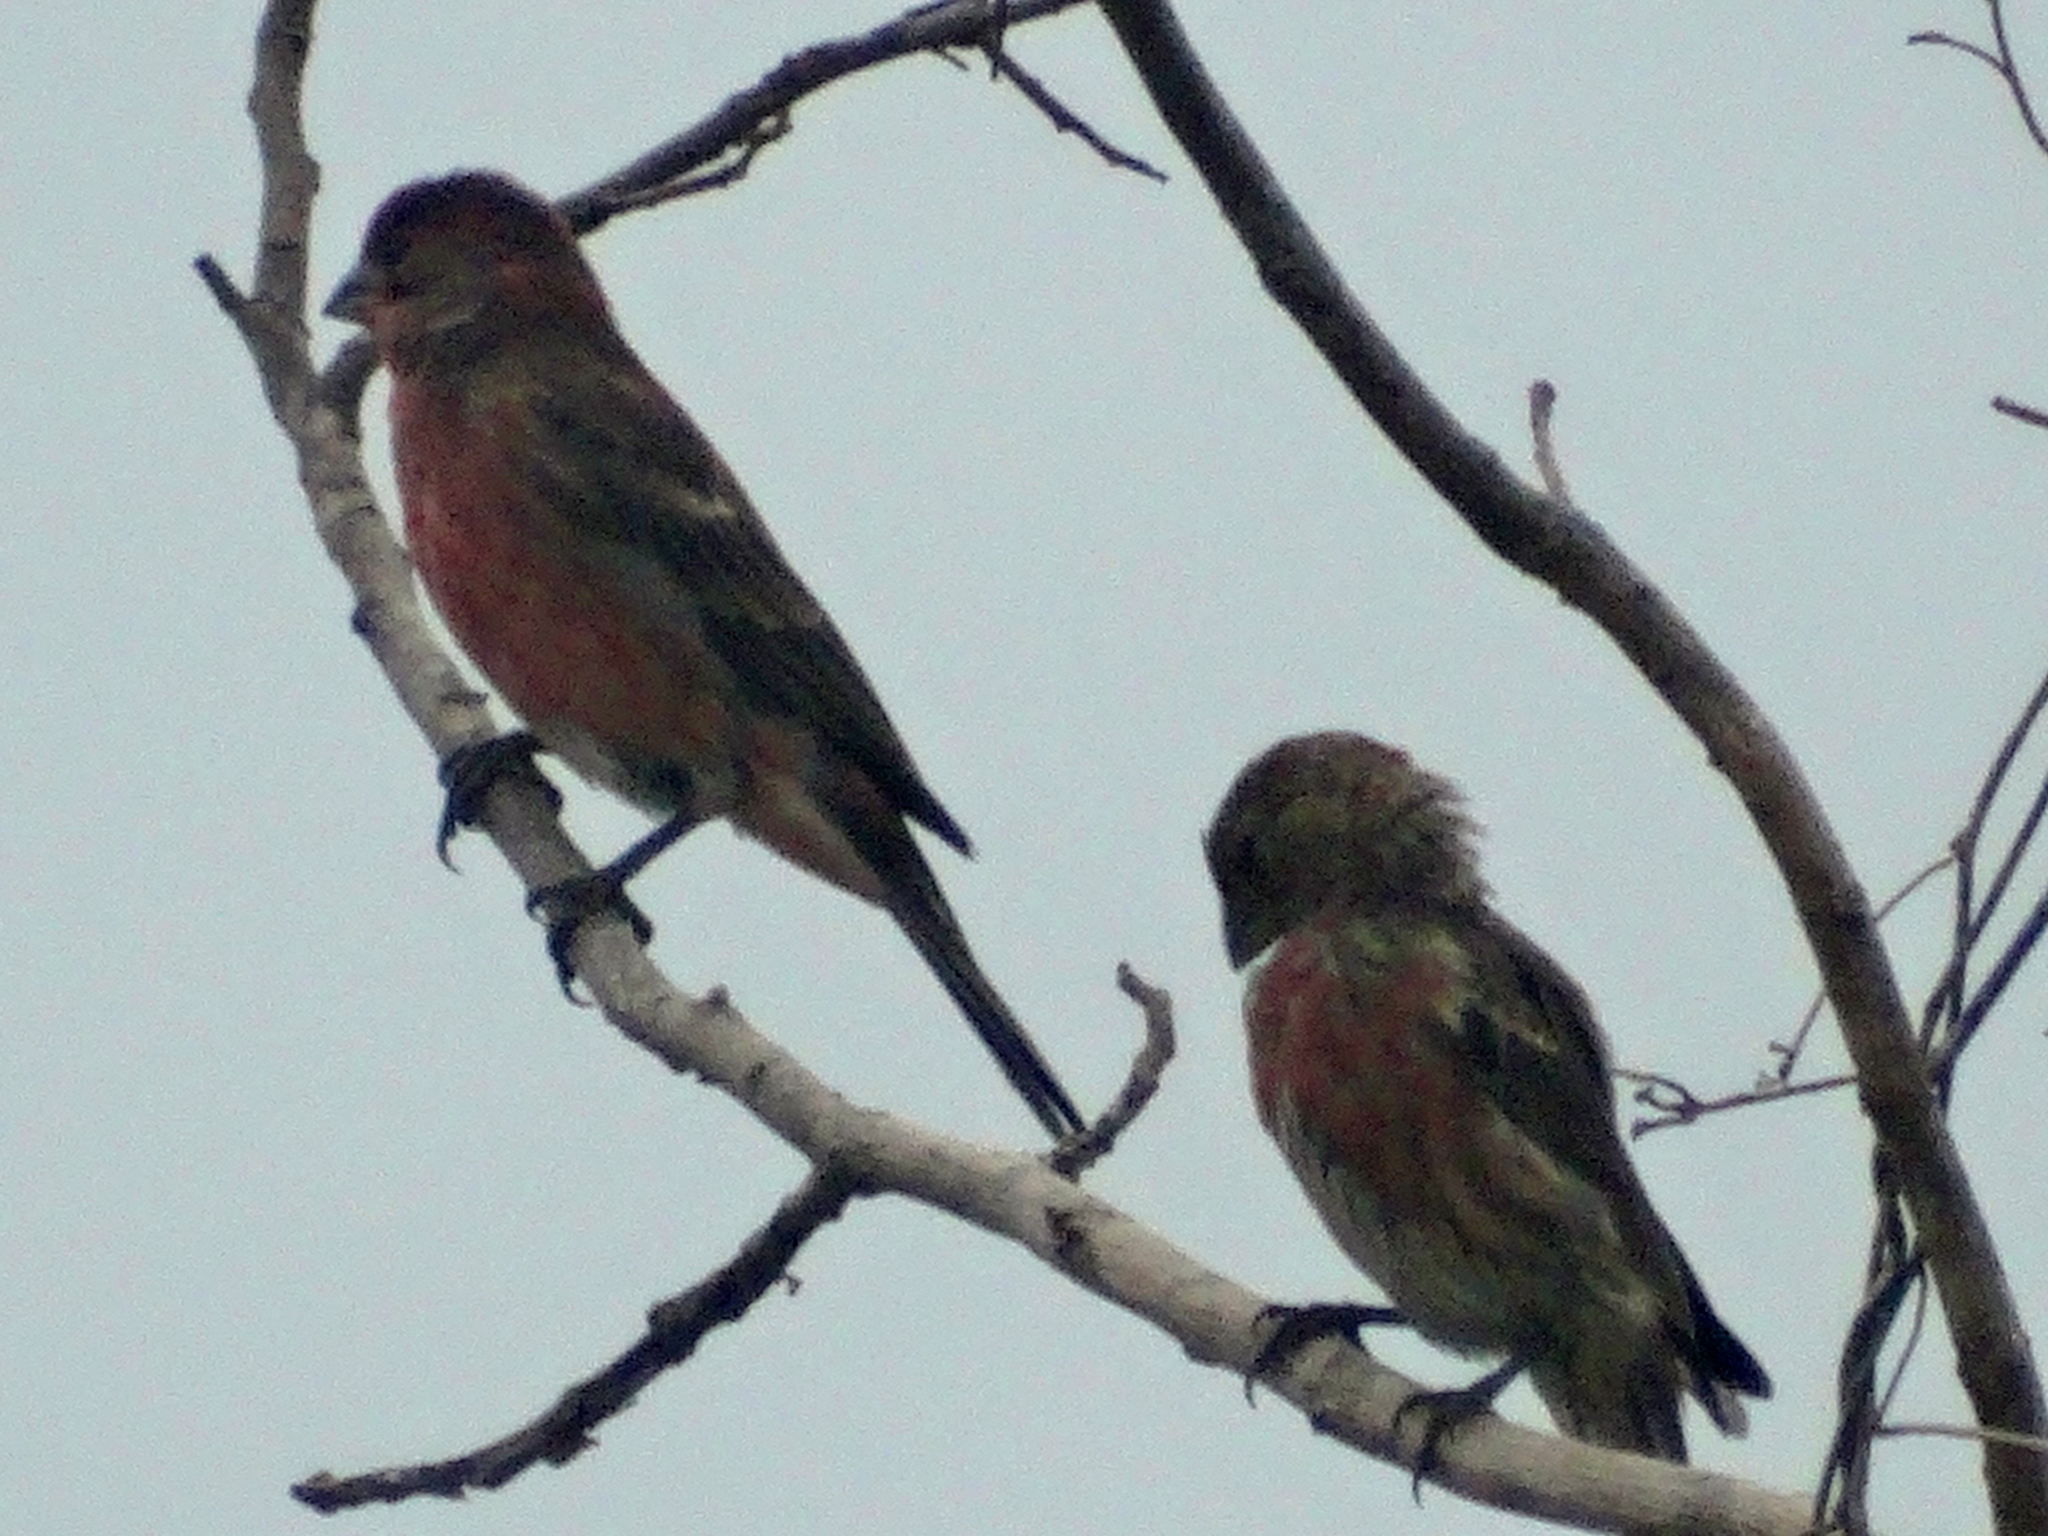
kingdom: Animalia
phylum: Chordata
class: Aves
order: Passeriformes
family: Fringillidae
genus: Haemorhous
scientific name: Haemorhous mexicanus
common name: House finch
